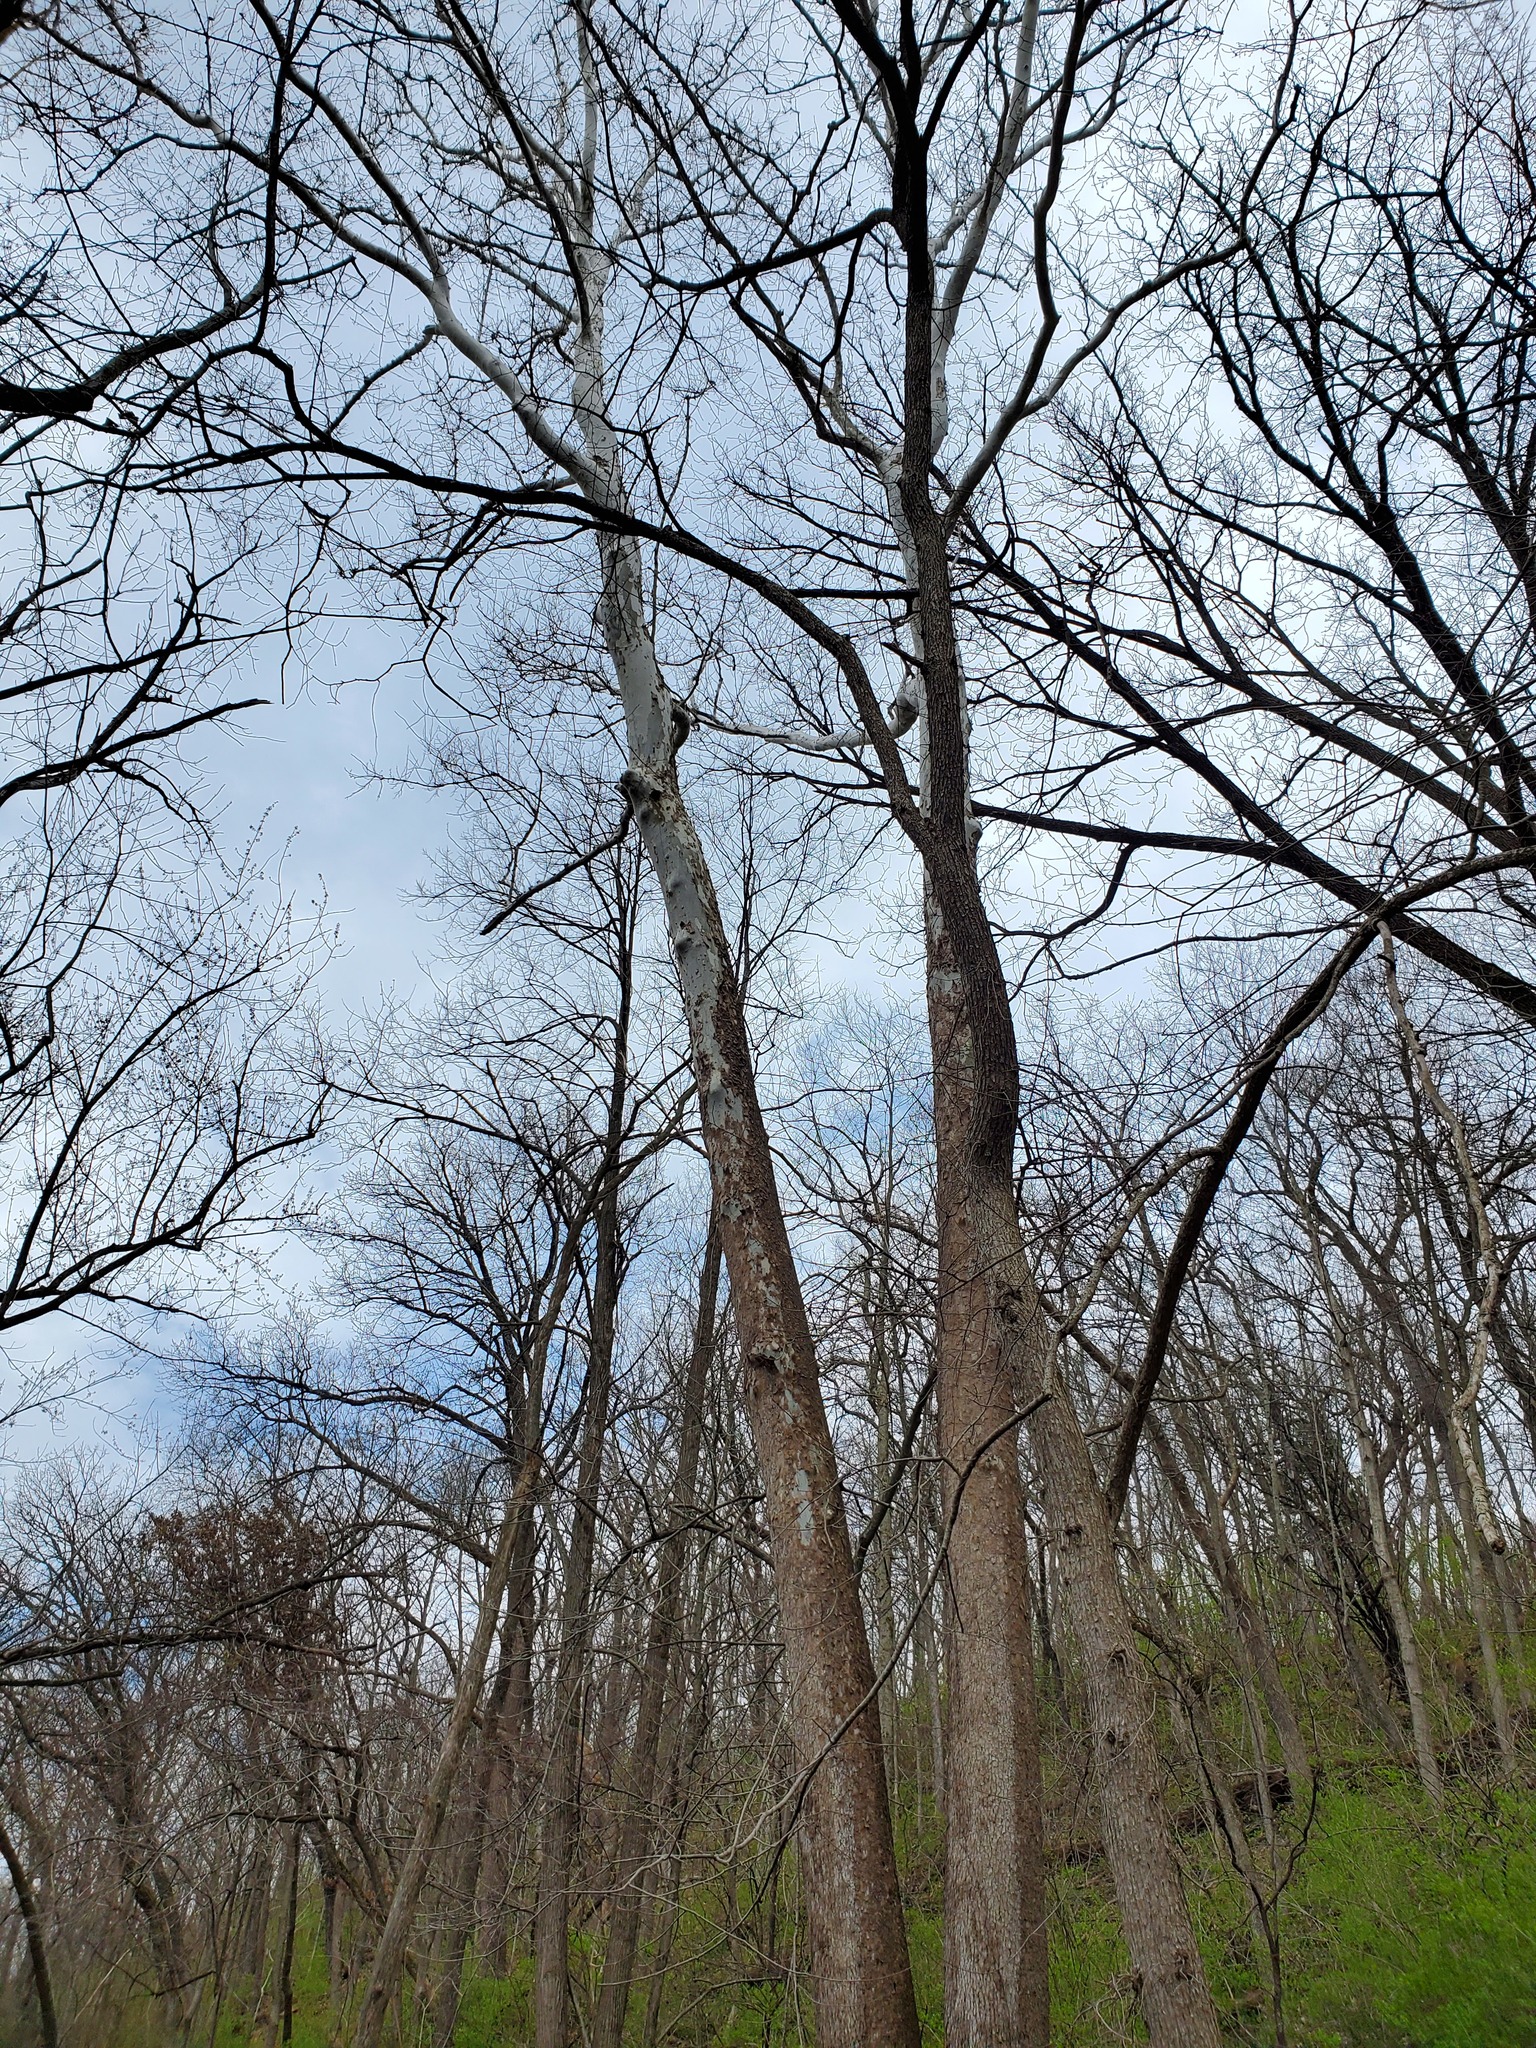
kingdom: Plantae
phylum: Tracheophyta
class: Magnoliopsida
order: Proteales
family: Platanaceae
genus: Platanus
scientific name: Platanus occidentalis
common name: American sycamore
